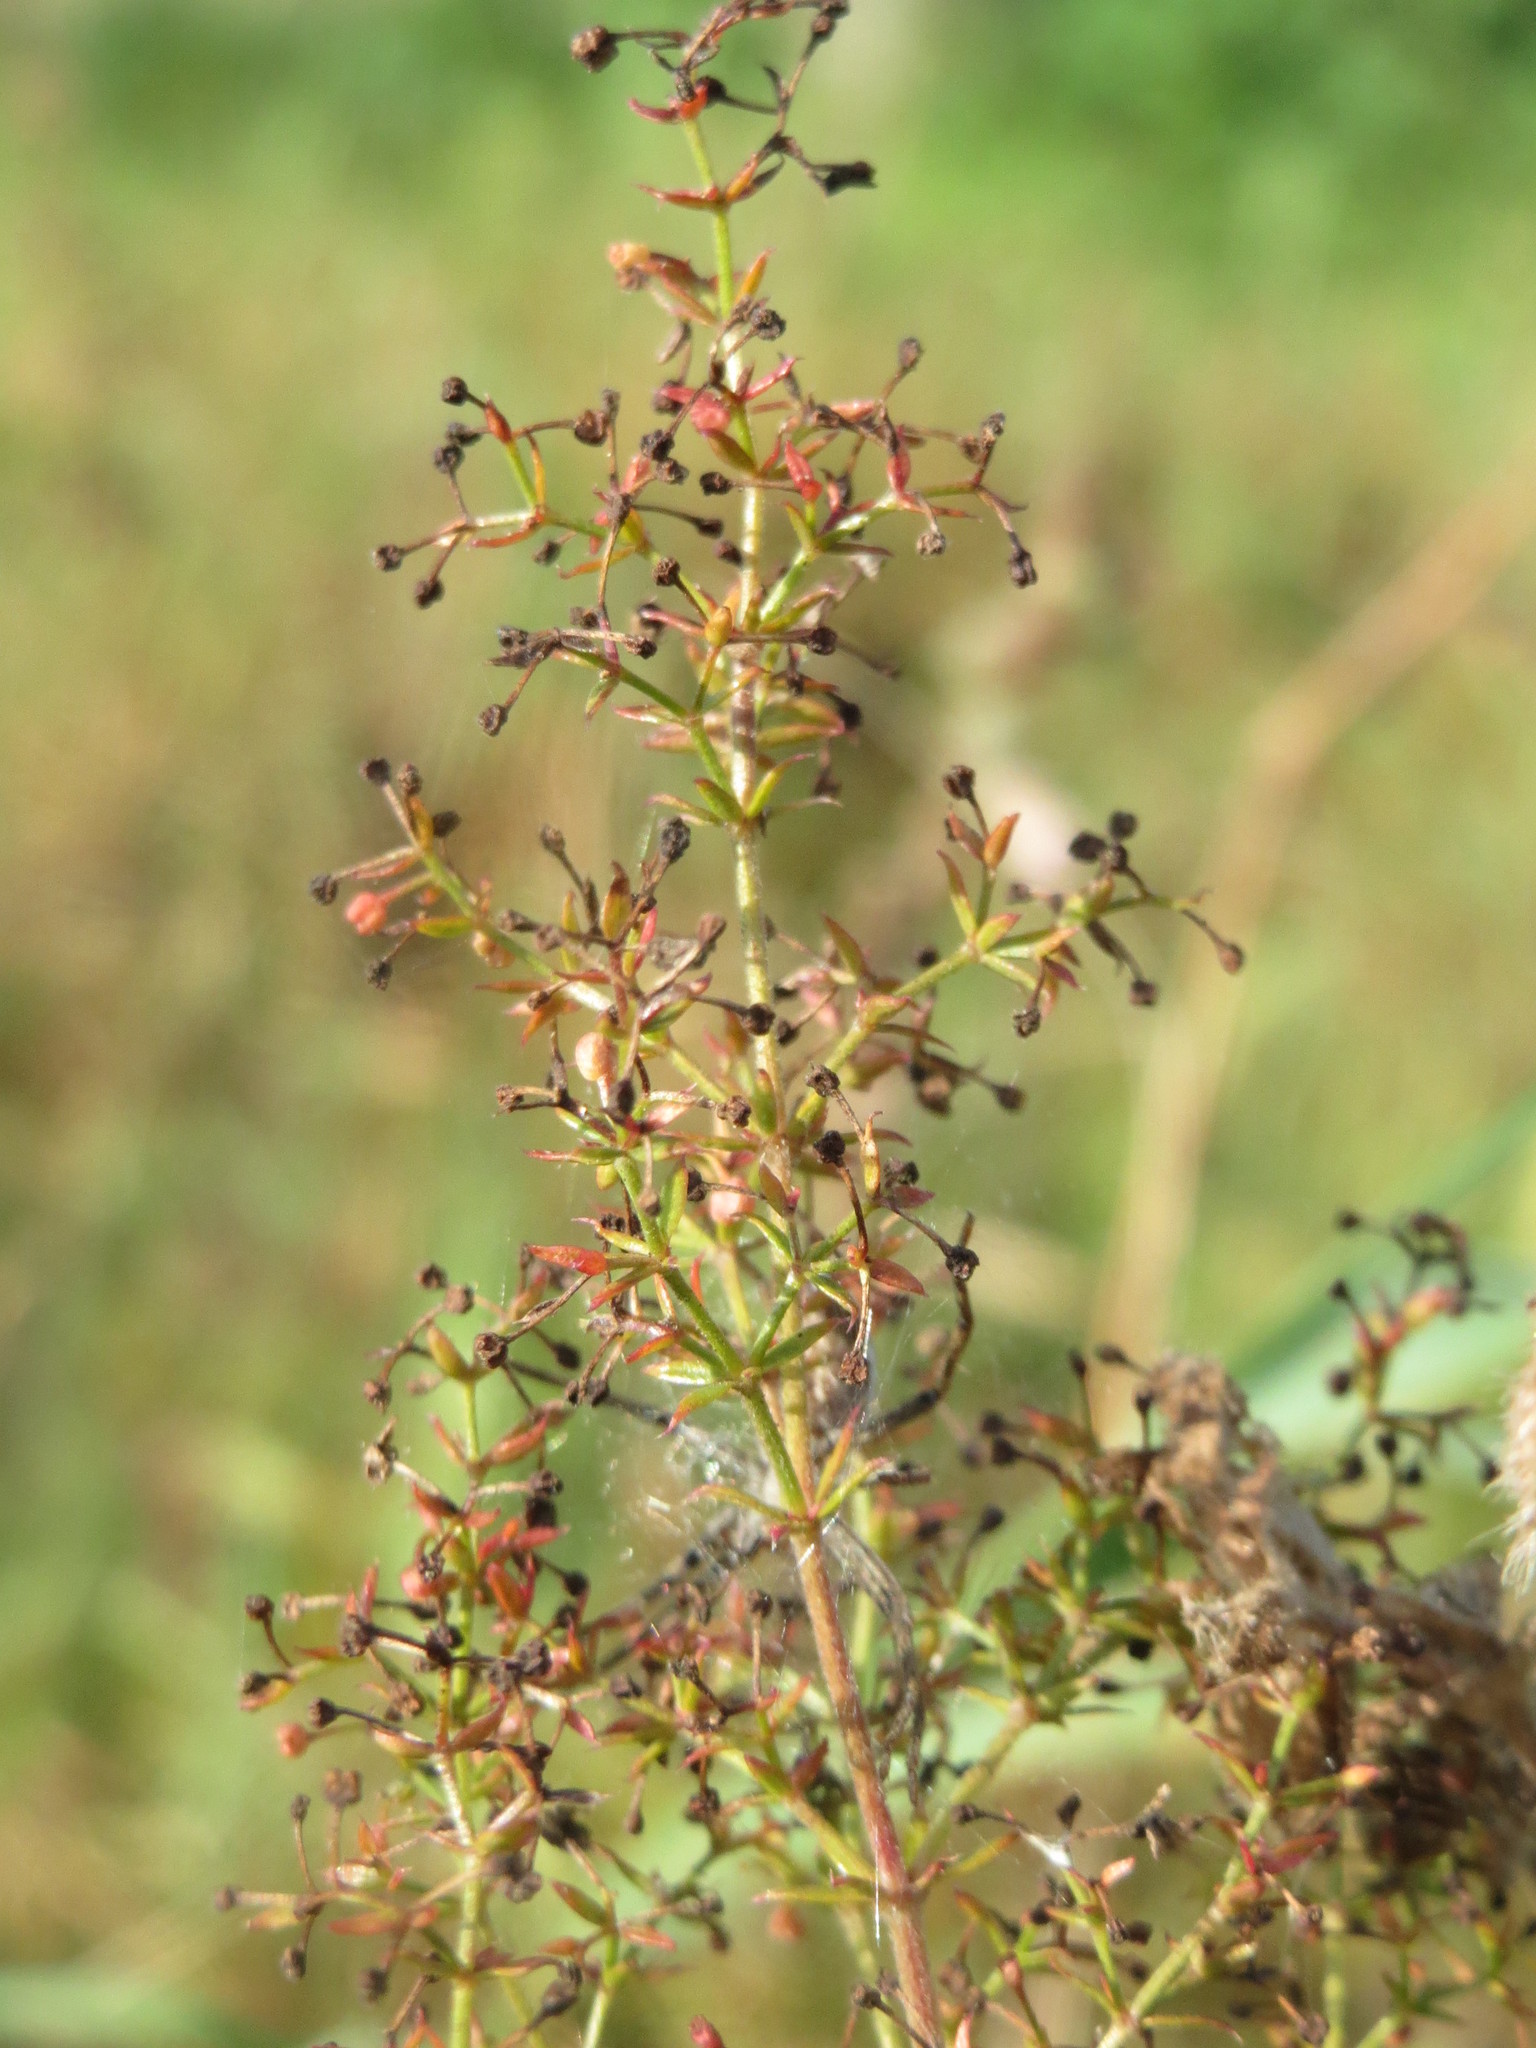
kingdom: Plantae
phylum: Tracheophyta
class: Magnoliopsida
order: Gentianales
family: Rubiaceae
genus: Galium
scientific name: Galium verum
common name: Lady's bedstraw
